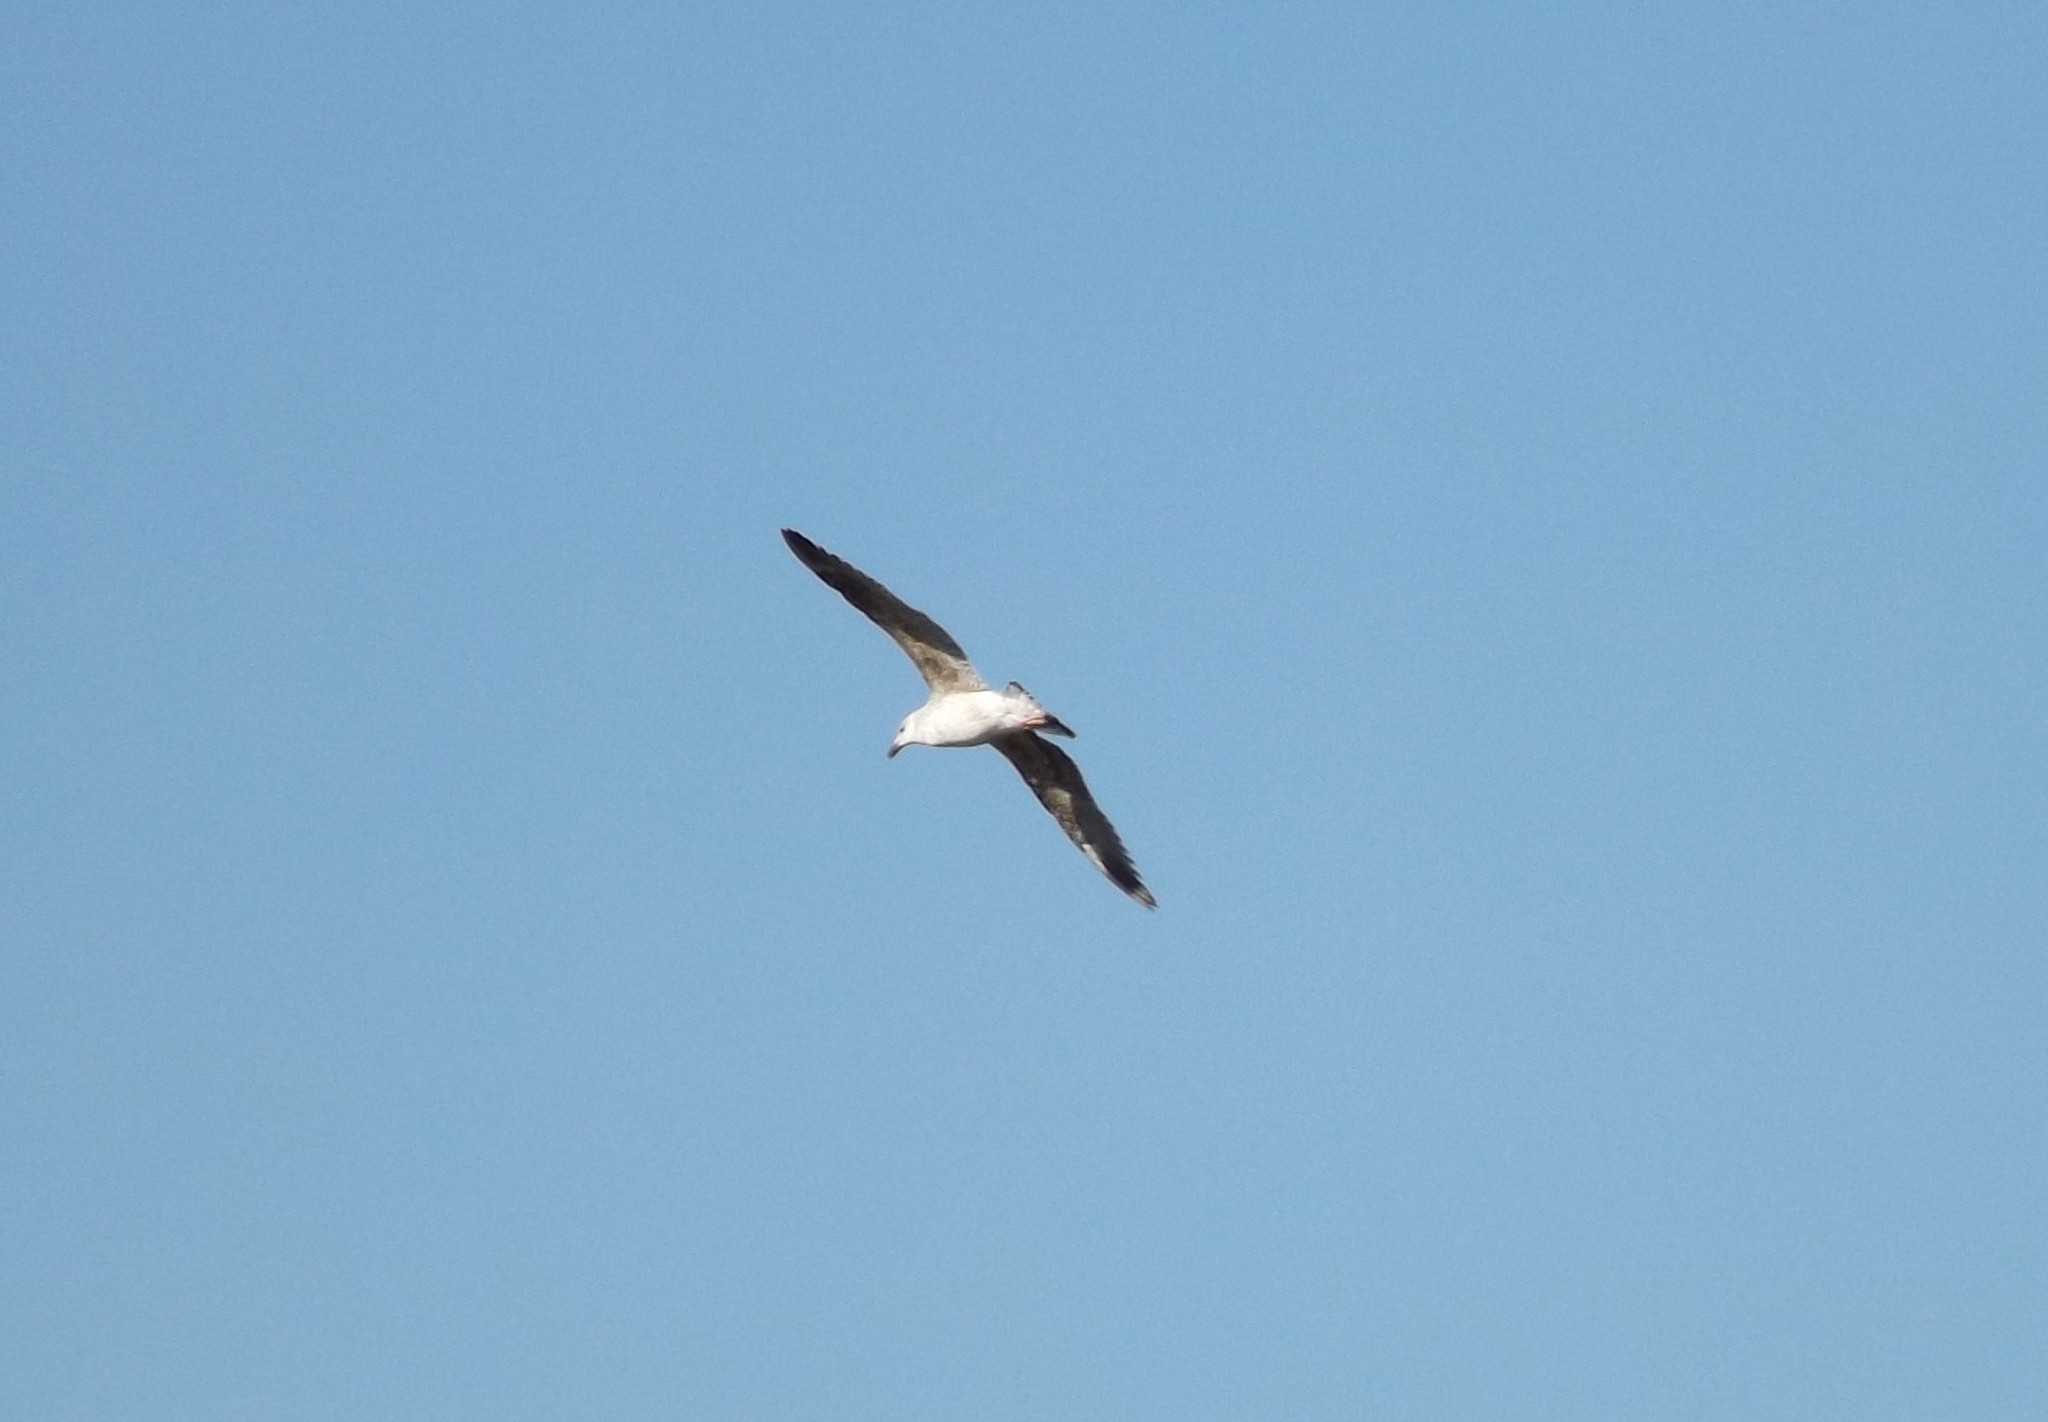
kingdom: Animalia
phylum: Chordata
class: Aves
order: Charadriiformes
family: Laridae
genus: Larus
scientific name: Larus marinus
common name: Great black-backed gull
